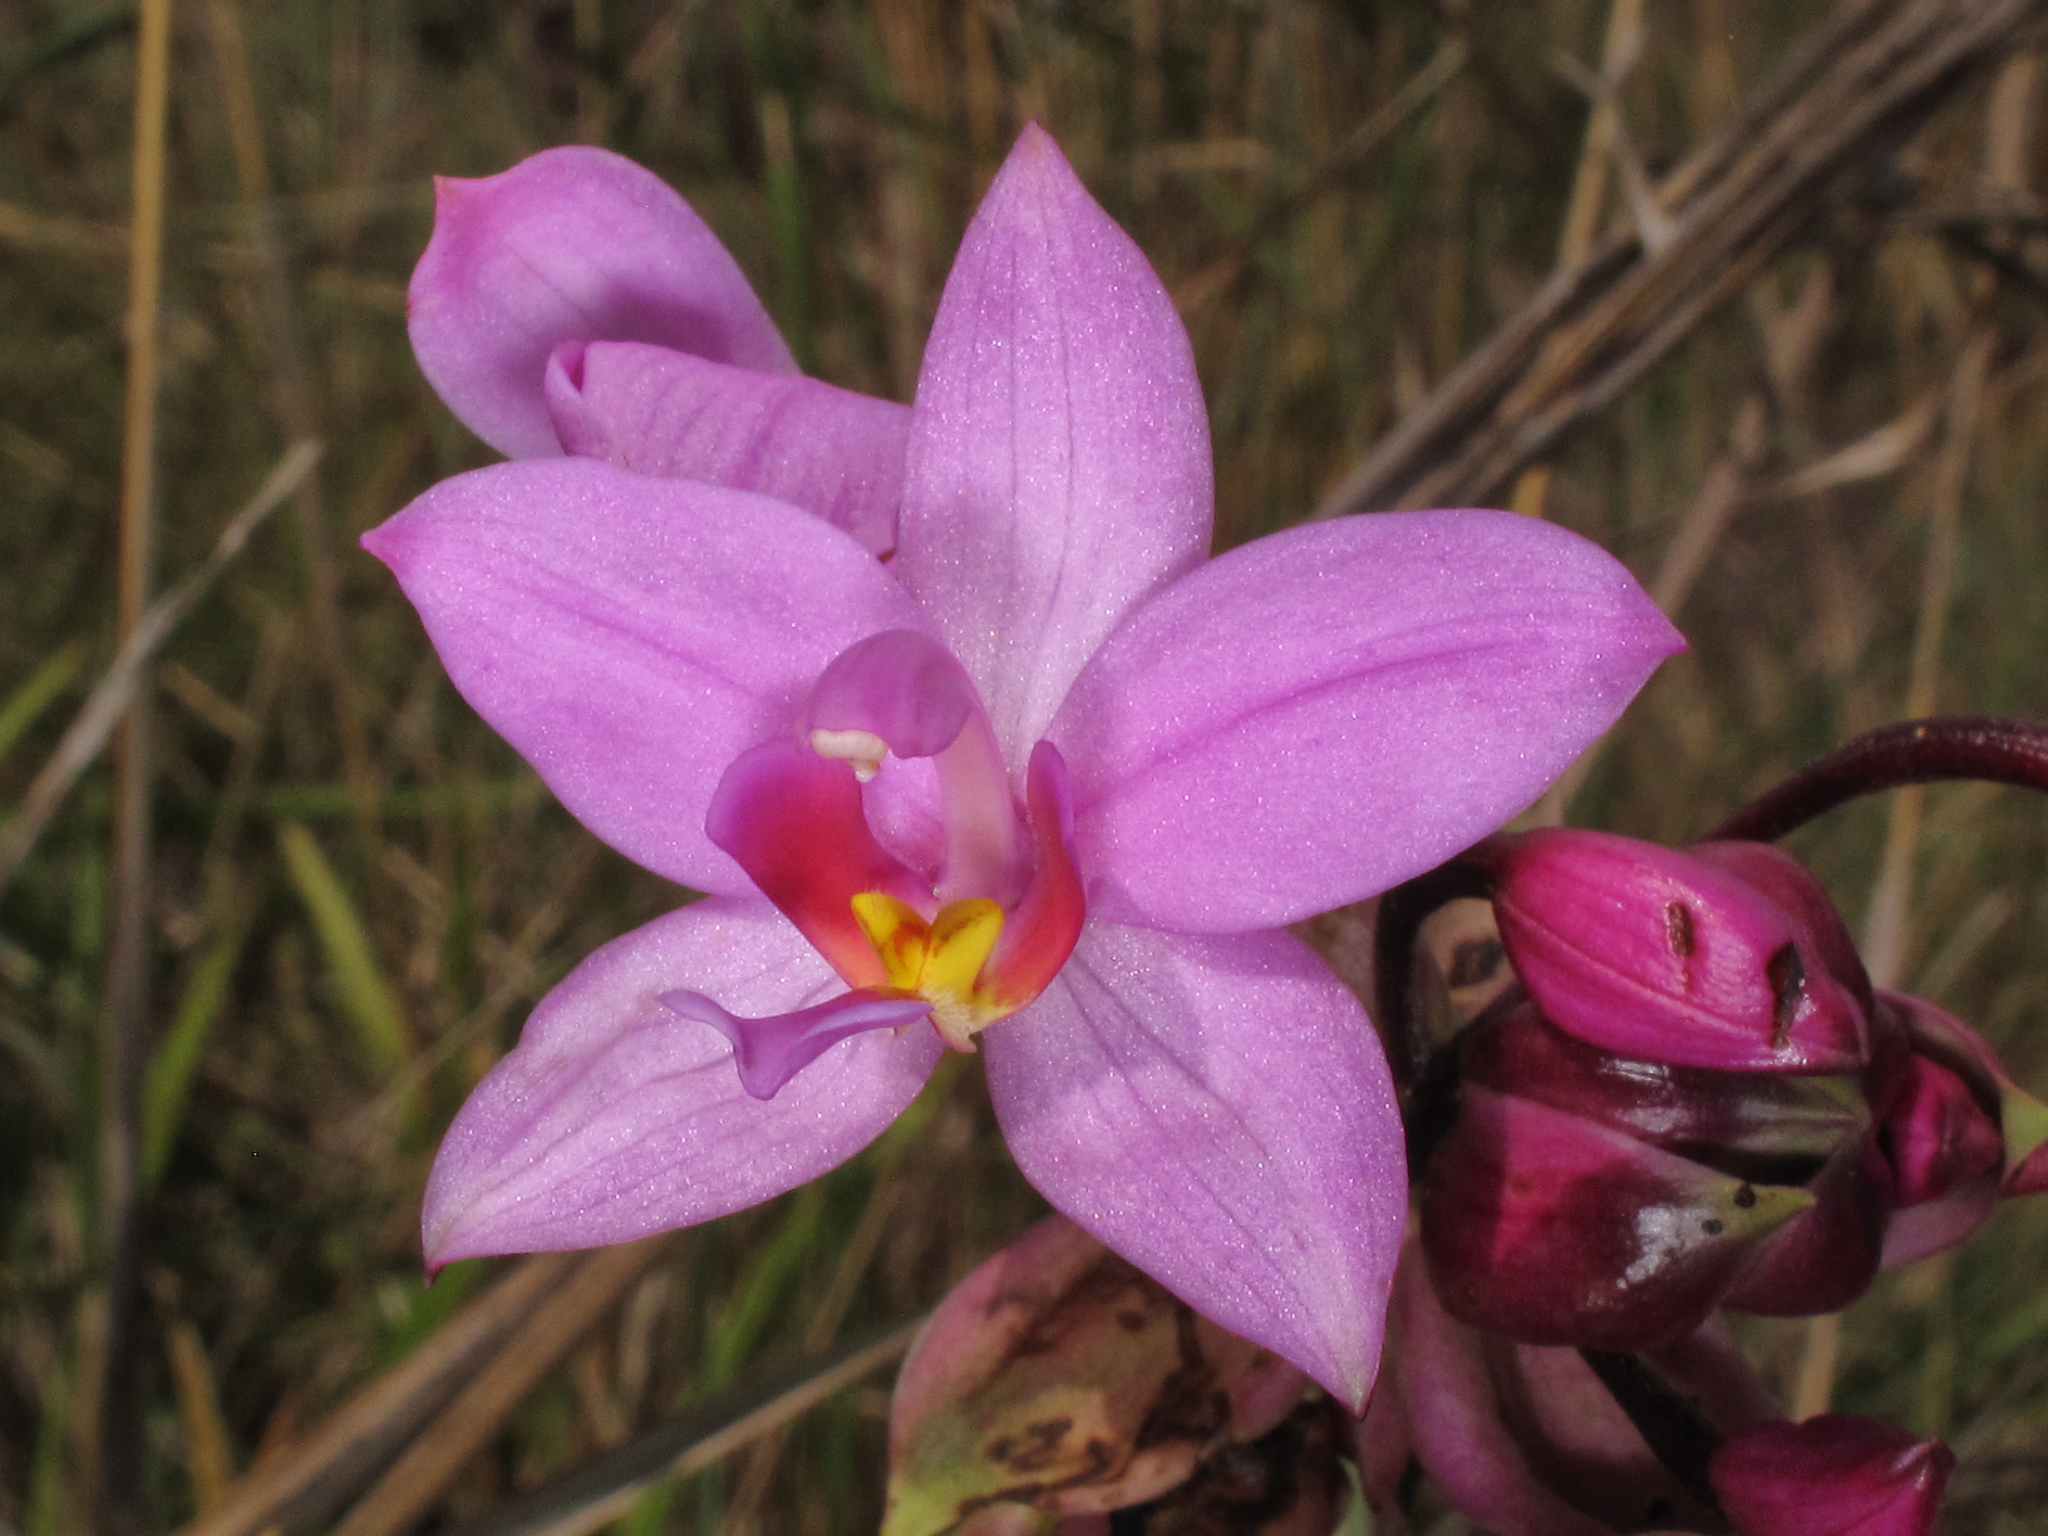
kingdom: Plantae
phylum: Tracheophyta
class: Liliopsida
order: Asparagales
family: Orchidaceae
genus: Spathoglottis
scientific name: Spathoglottis plicata
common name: Philippine ground orchid
